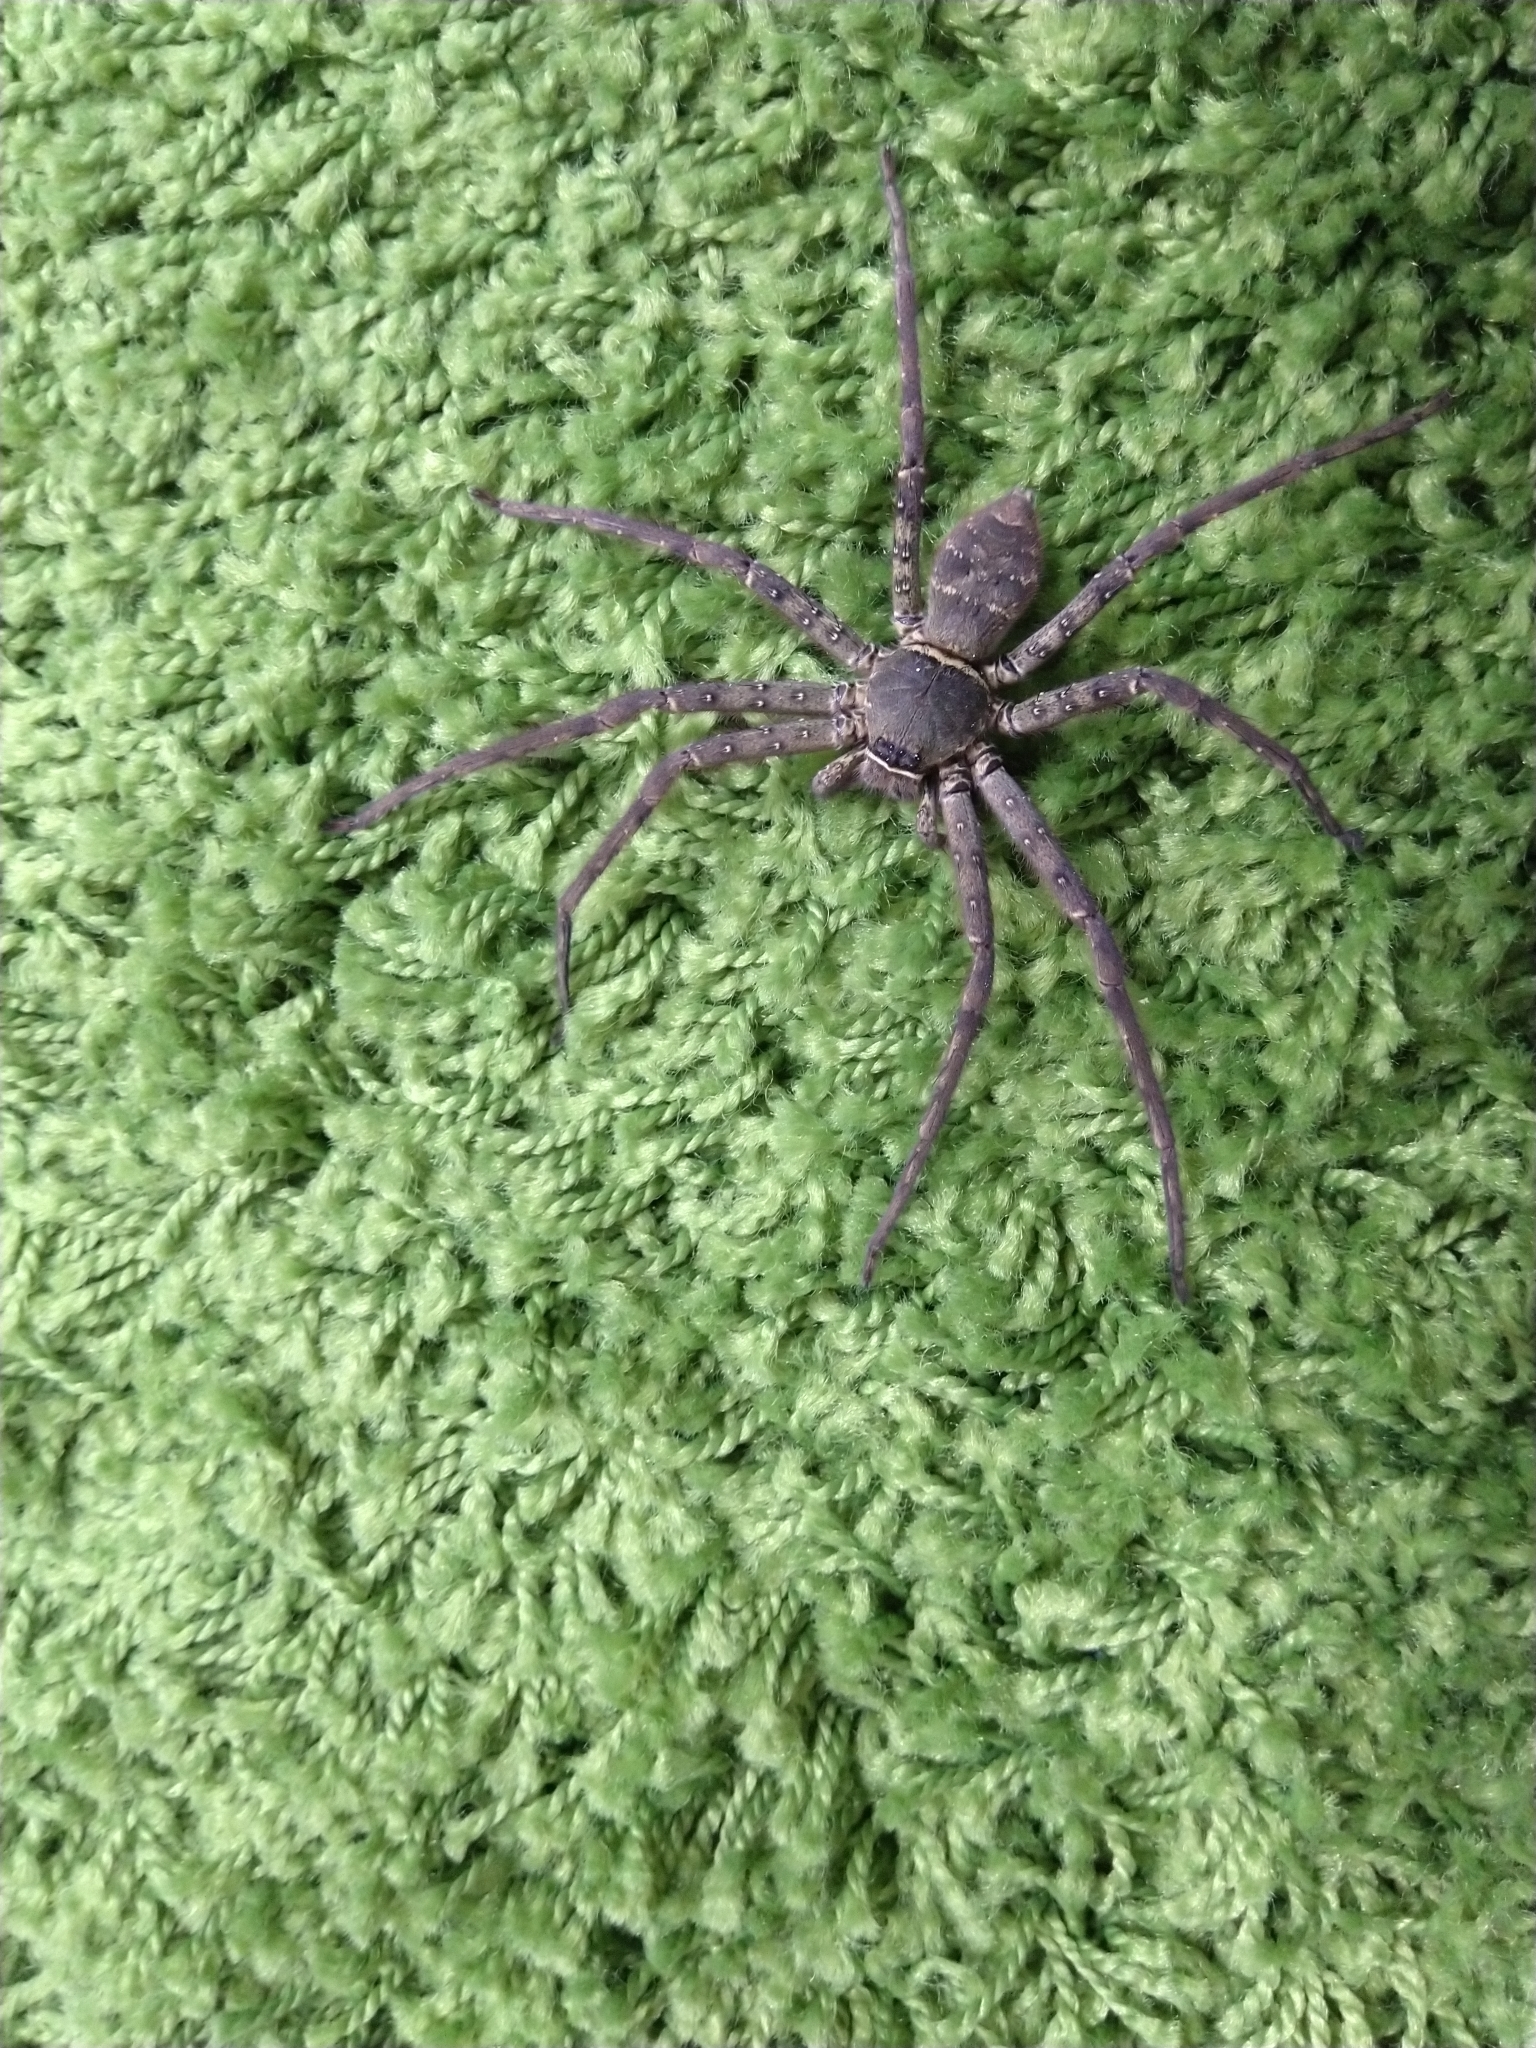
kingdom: Animalia
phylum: Arthropoda
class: Arachnida
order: Araneae
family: Sparassidae
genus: Heteropoda
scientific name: Heteropoda venatoria
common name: Huntsman spider
